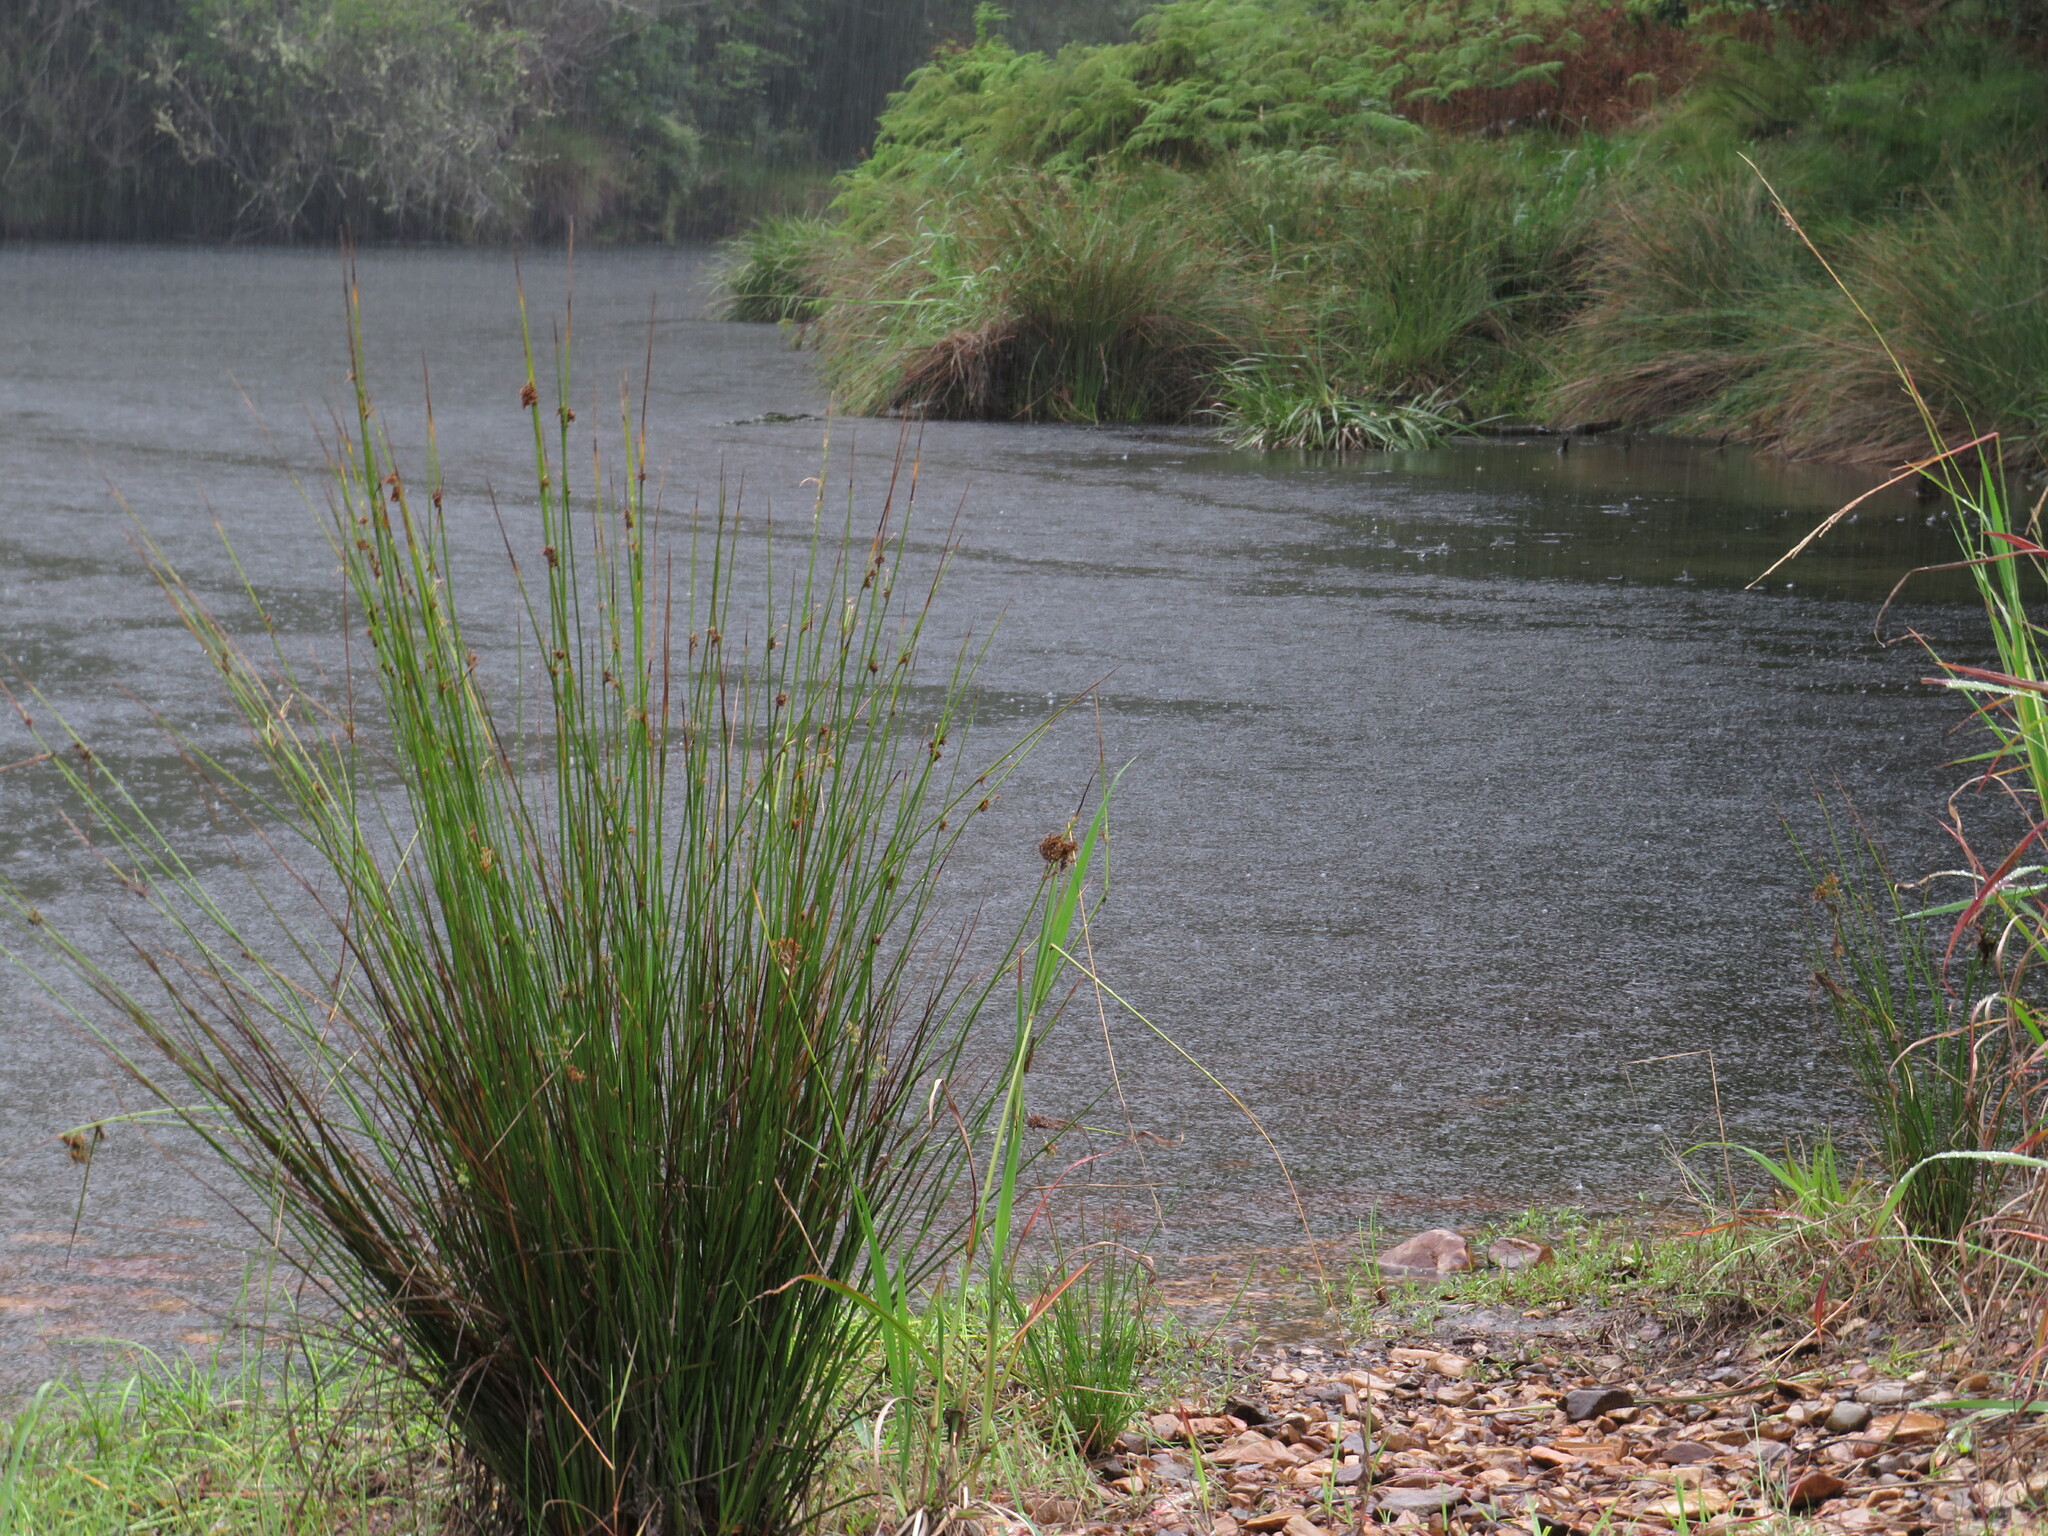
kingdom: Plantae
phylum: Tracheophyta
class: Liliopsida
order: Poales
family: Poaceae
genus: Paspalum
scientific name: Paspalum urvillei
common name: Vasey's grass
